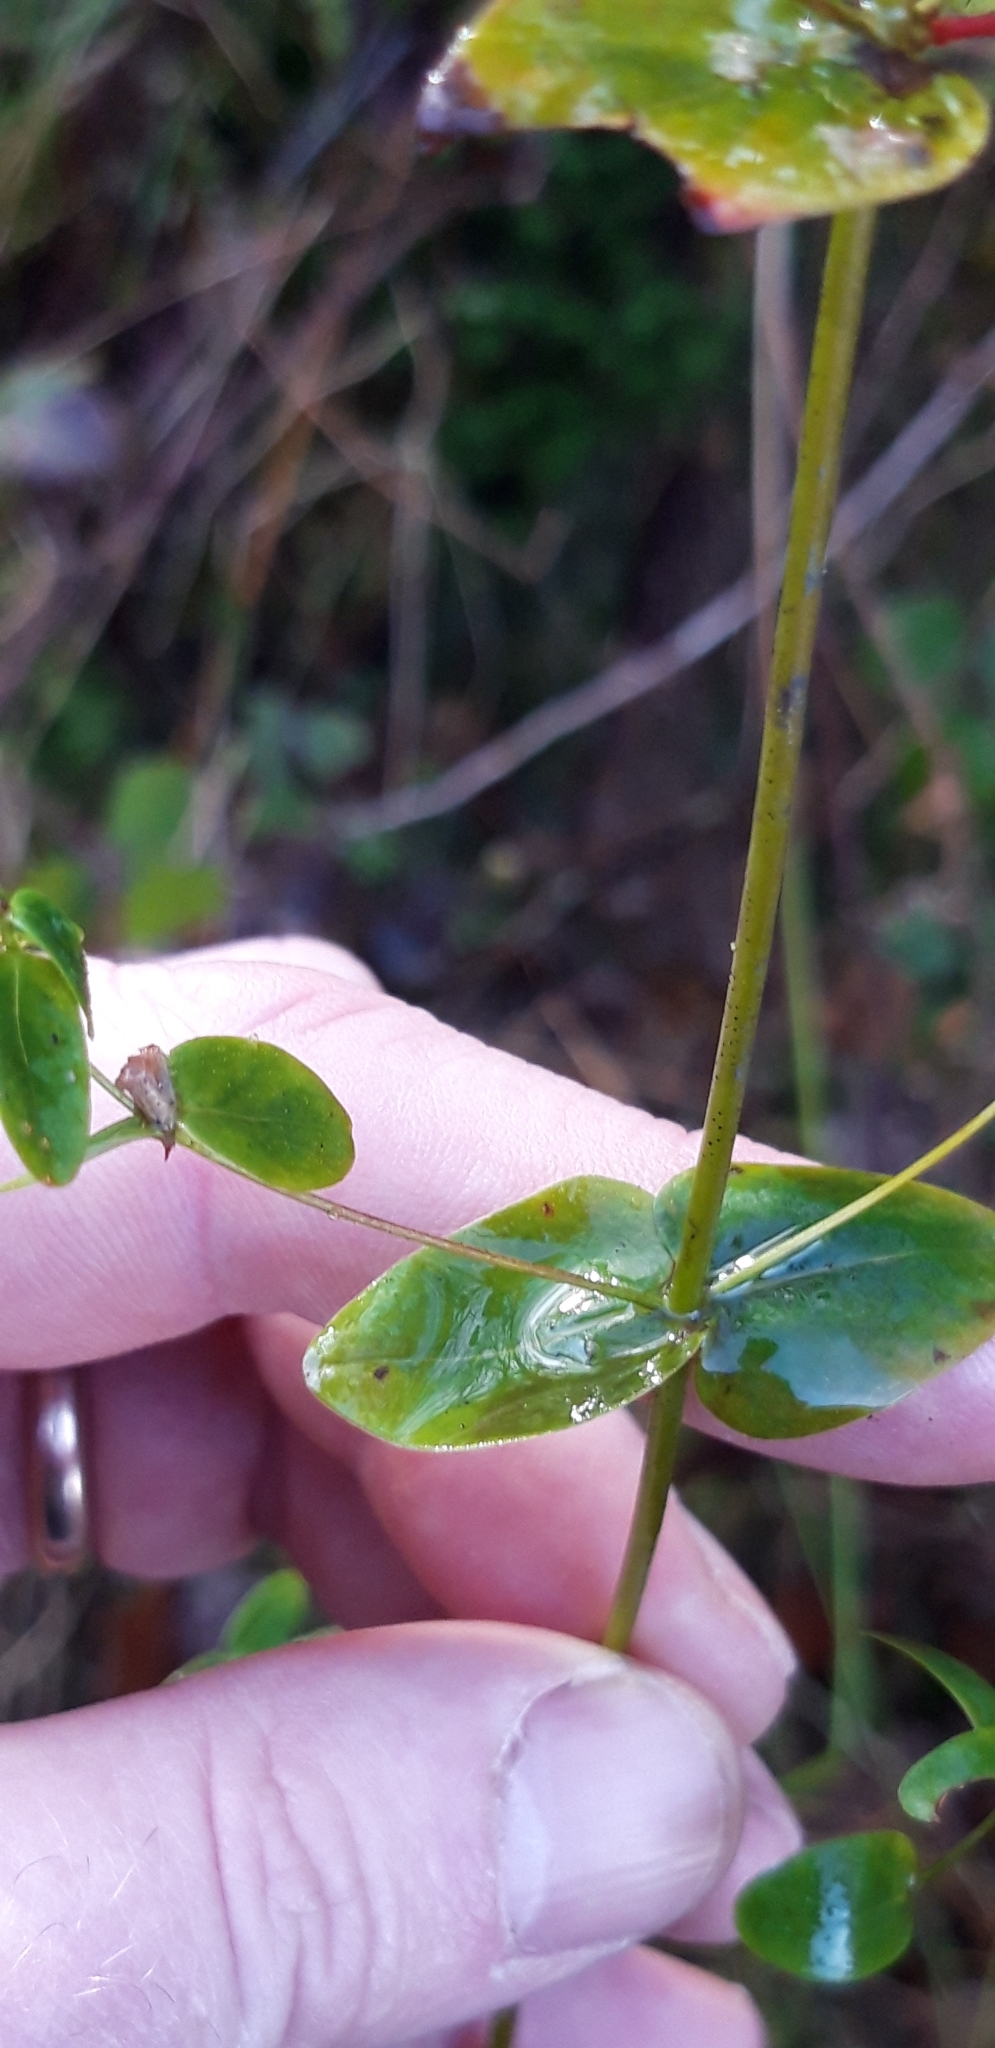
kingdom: Plantae
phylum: Tracheophyta
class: Magnoliopsida
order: Malpighiales
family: Hypericaceae
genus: Hypericum
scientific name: Hypericum pulchrum
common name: Slender st. john's-wort
